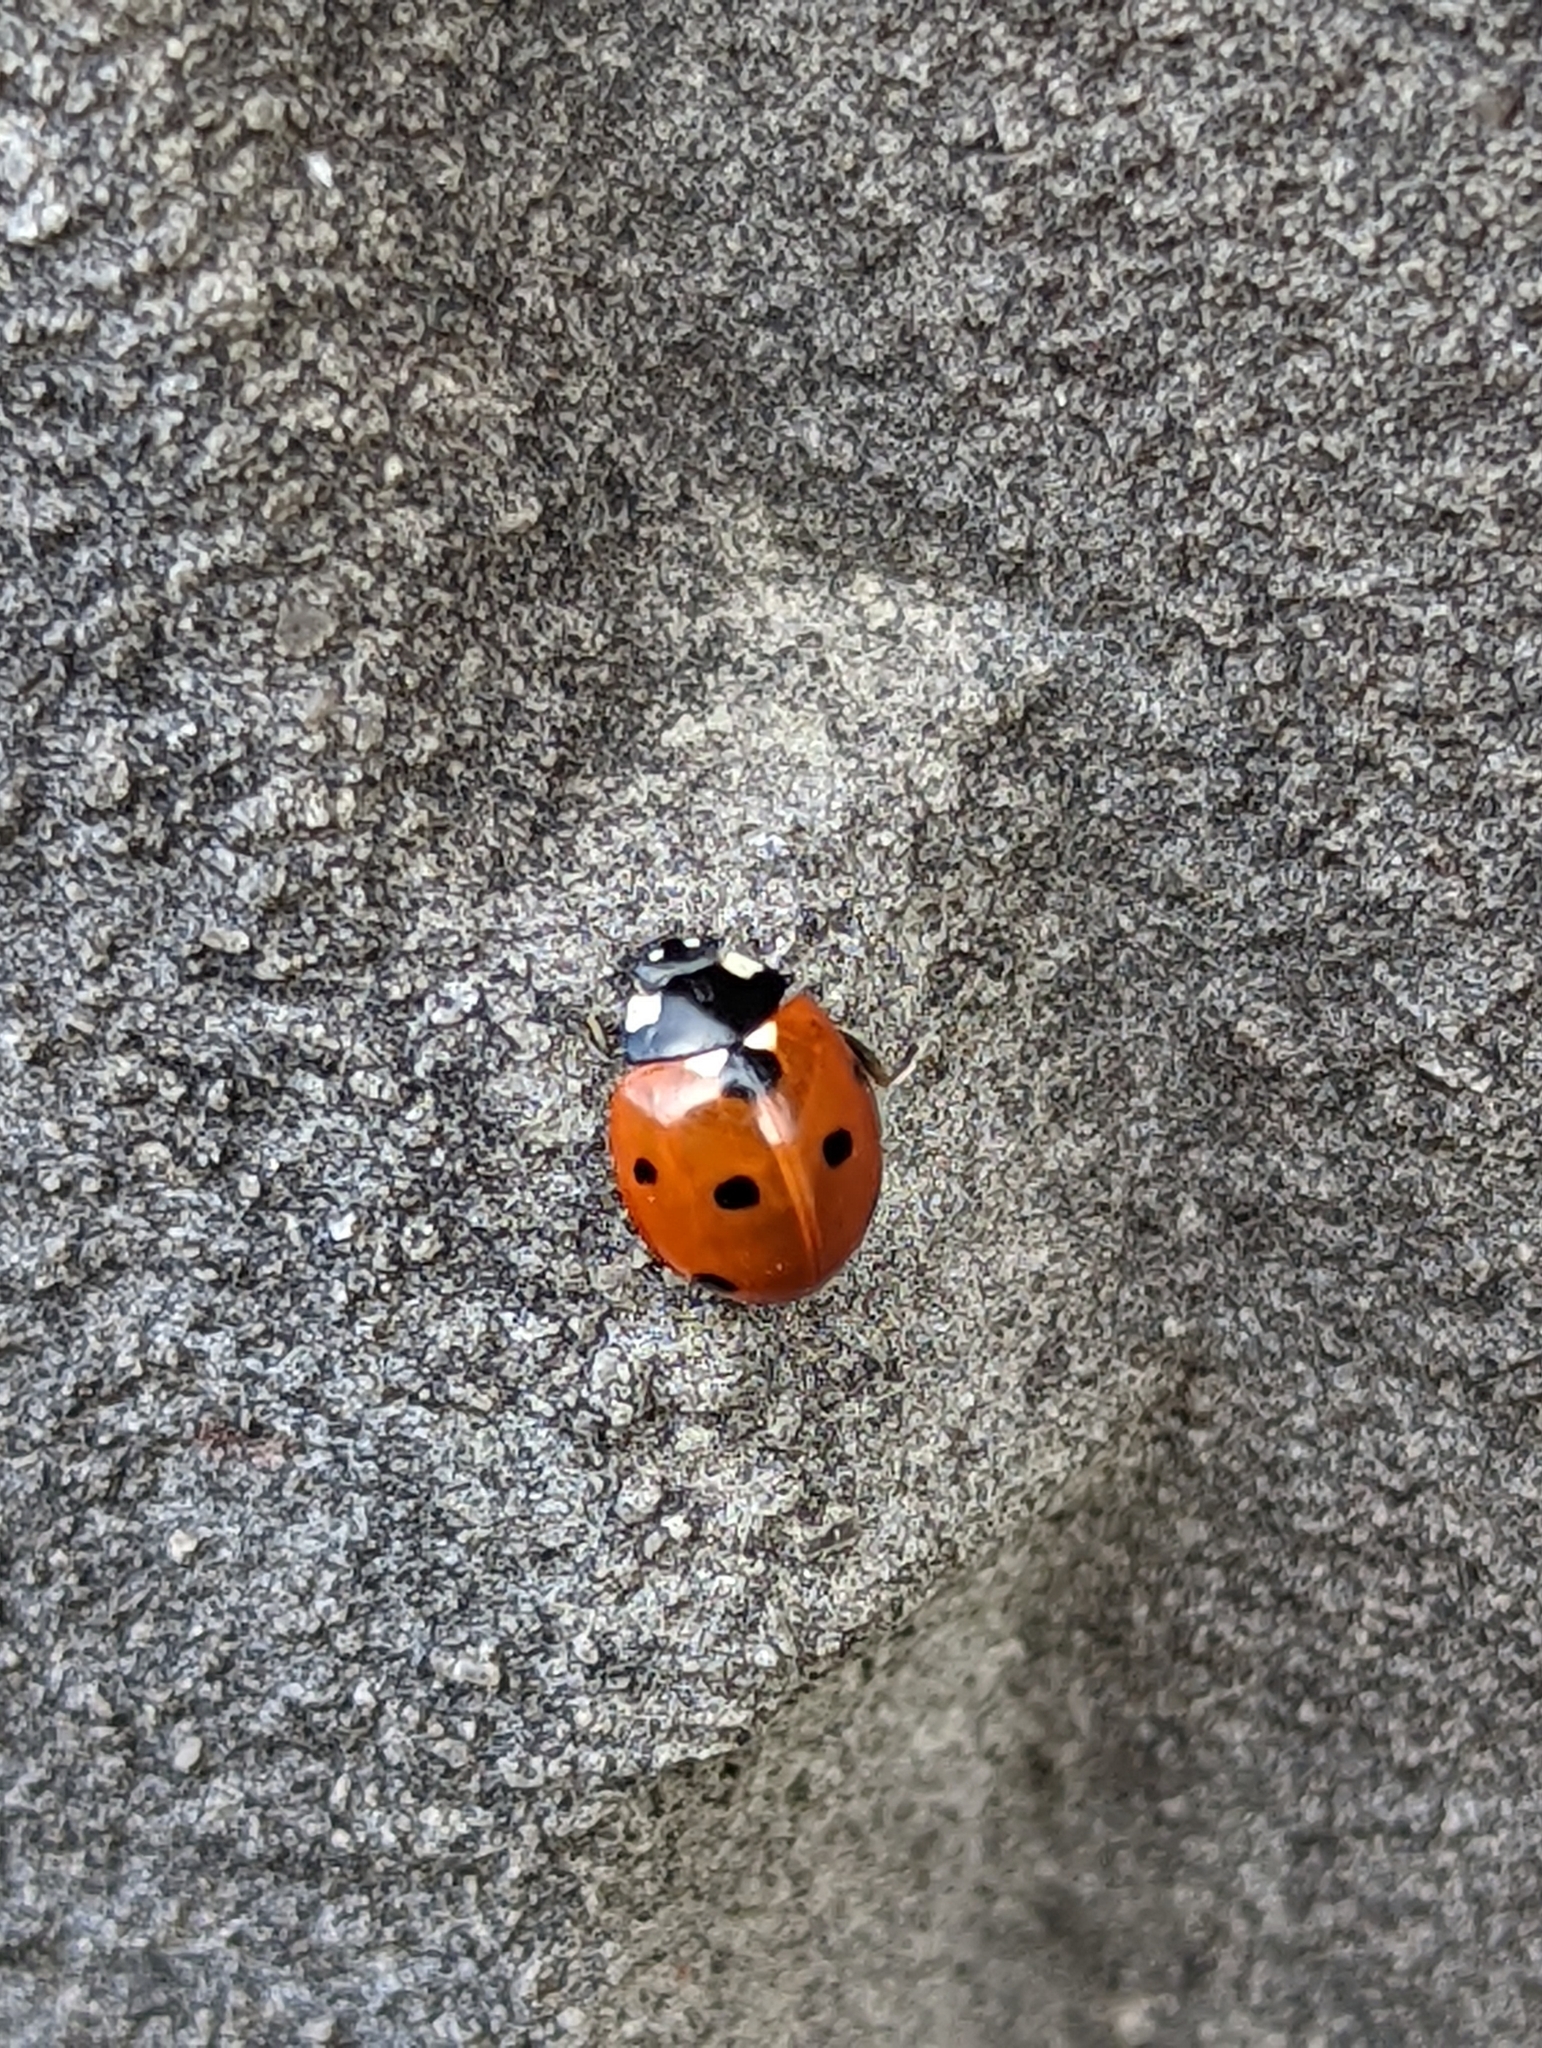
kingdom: Animalia
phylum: Arthropoda
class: Insecta
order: Coleoptera
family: Coccinellidae
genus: Coccinella
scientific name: Coccinella septempunctata
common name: Sevenspotted lady beetle
